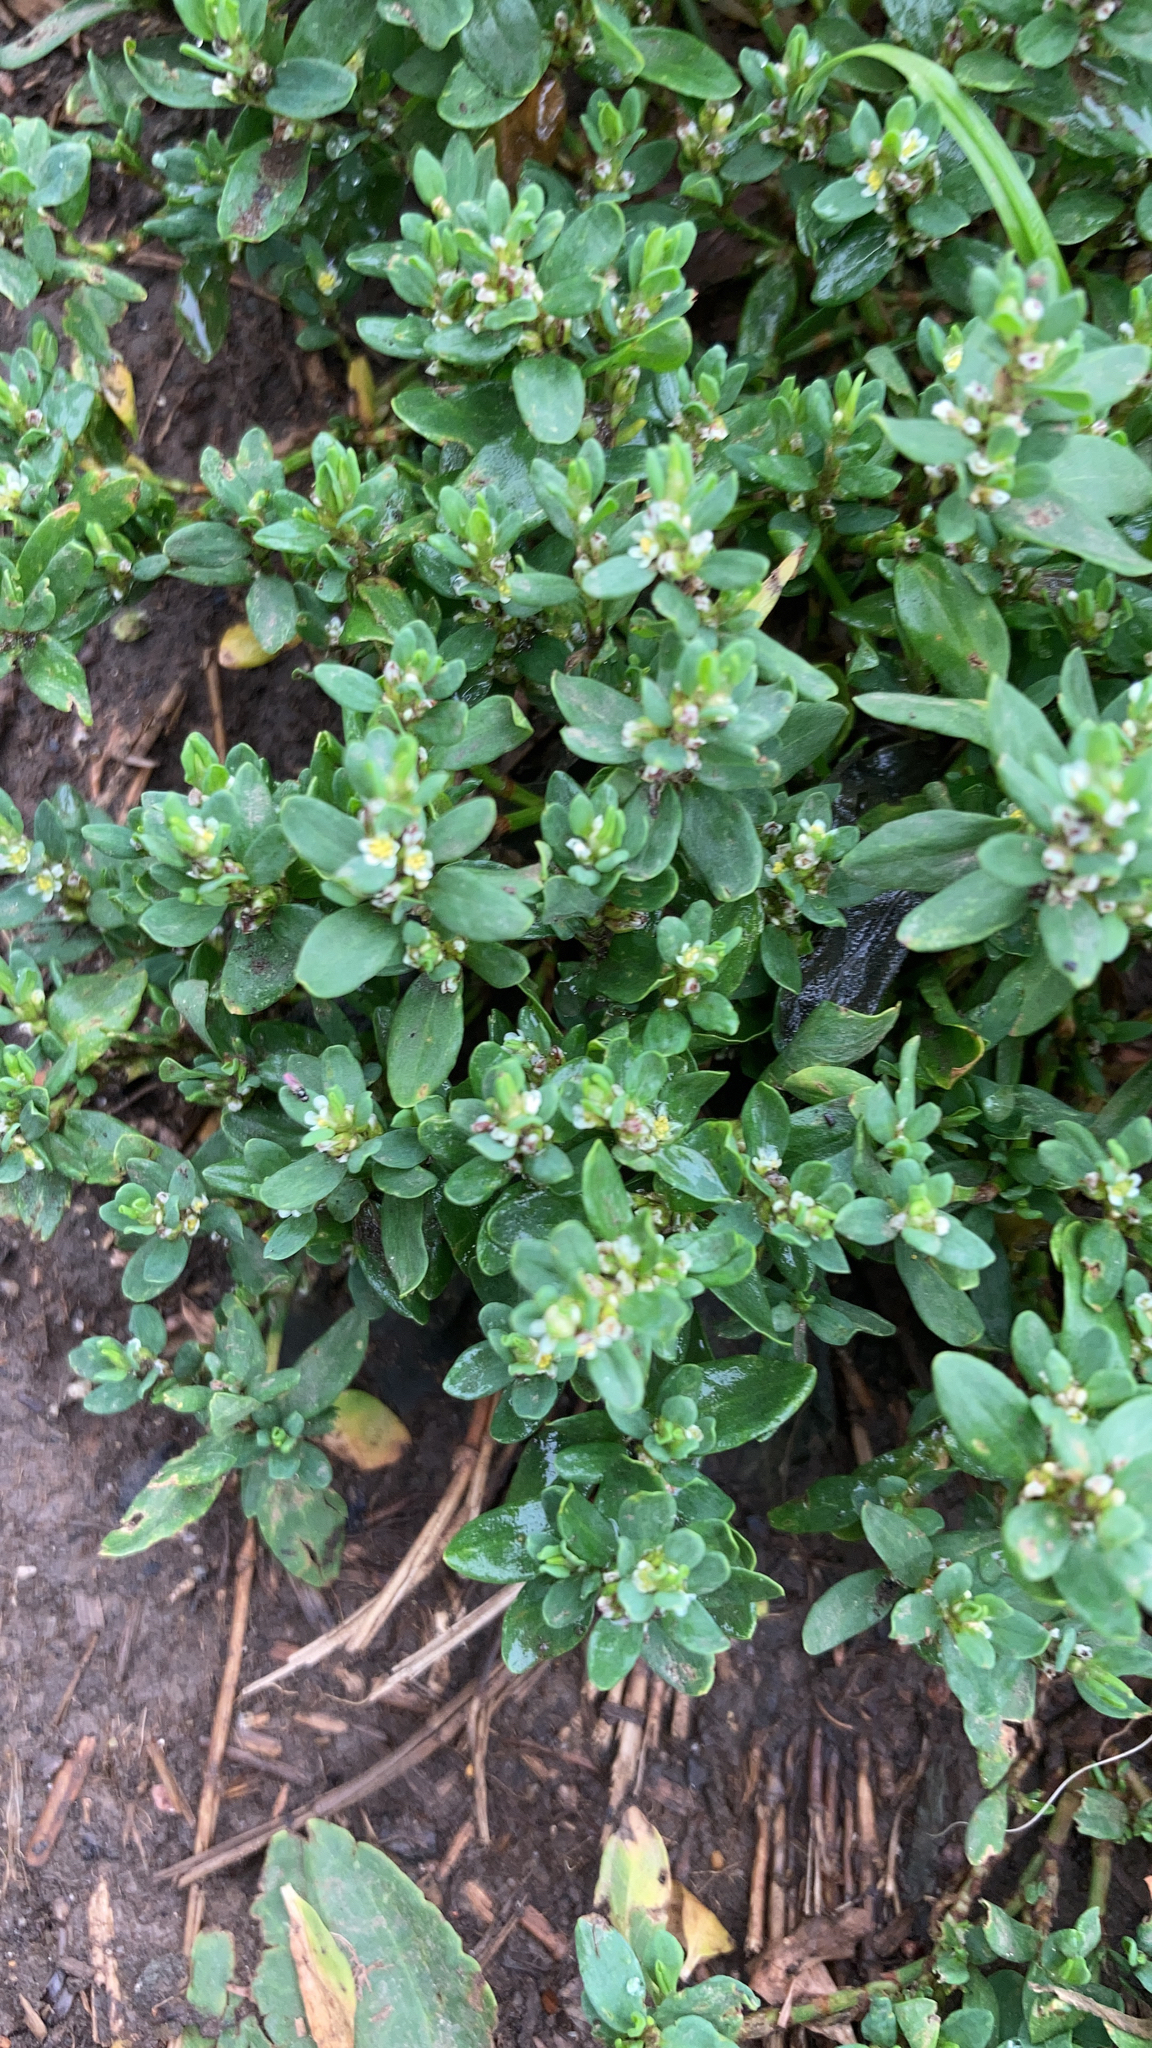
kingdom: Plantae
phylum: Tracheophyta
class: Magnoliopsida
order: Caryophyllales
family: Polygonaceae
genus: Polygonum
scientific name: Polygonum
